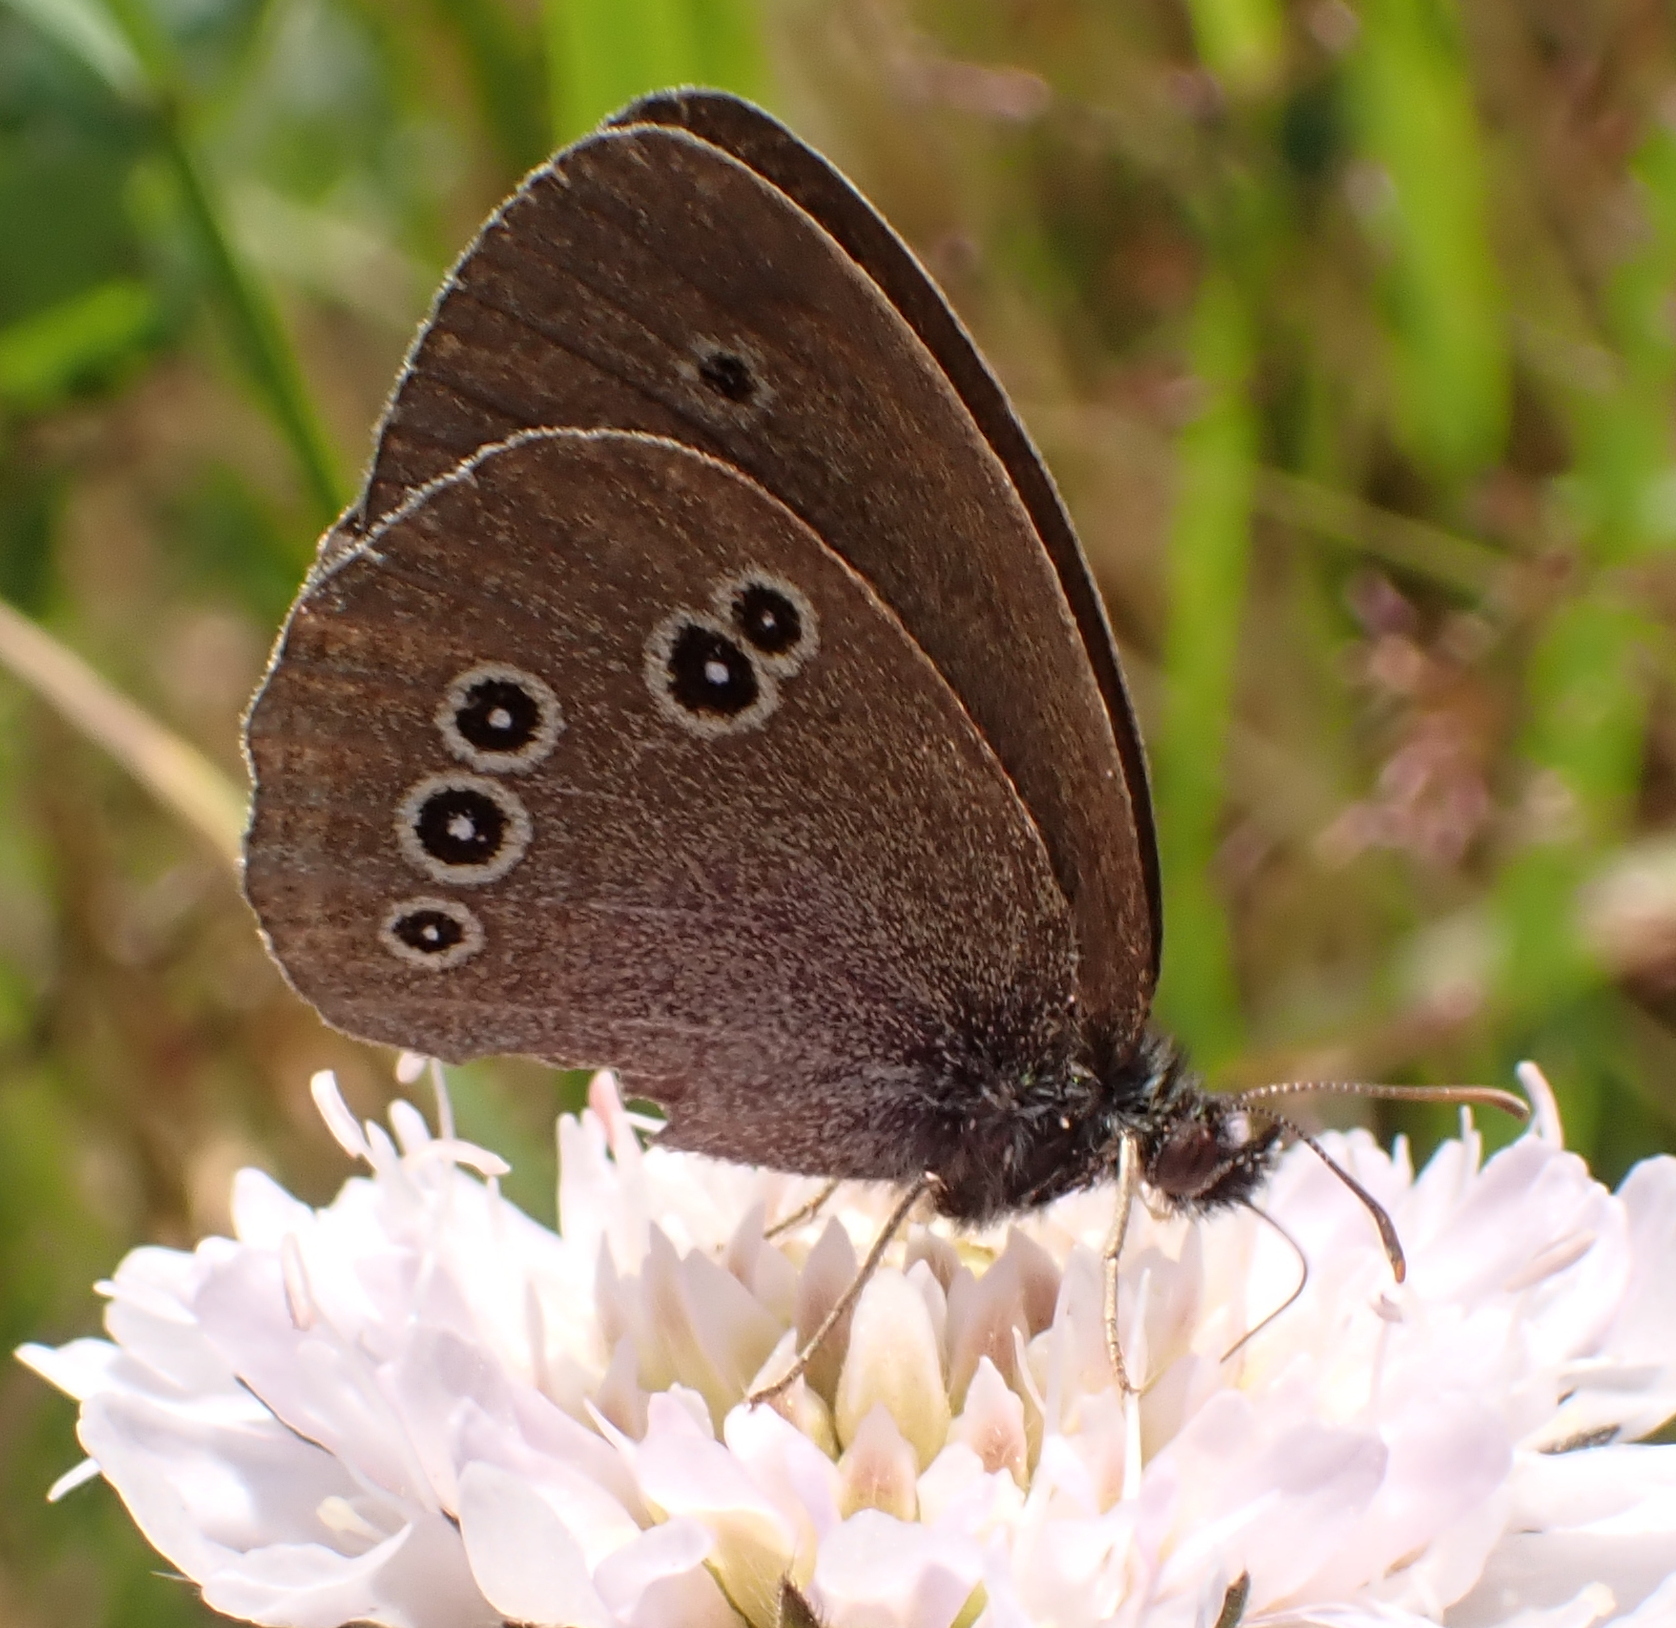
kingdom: Animalia
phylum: Arthropoda
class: Insecta
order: Lepidoptera
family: Nymphalidae
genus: Aphantopus
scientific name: Aphantopus hyperantus
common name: Ringlet
